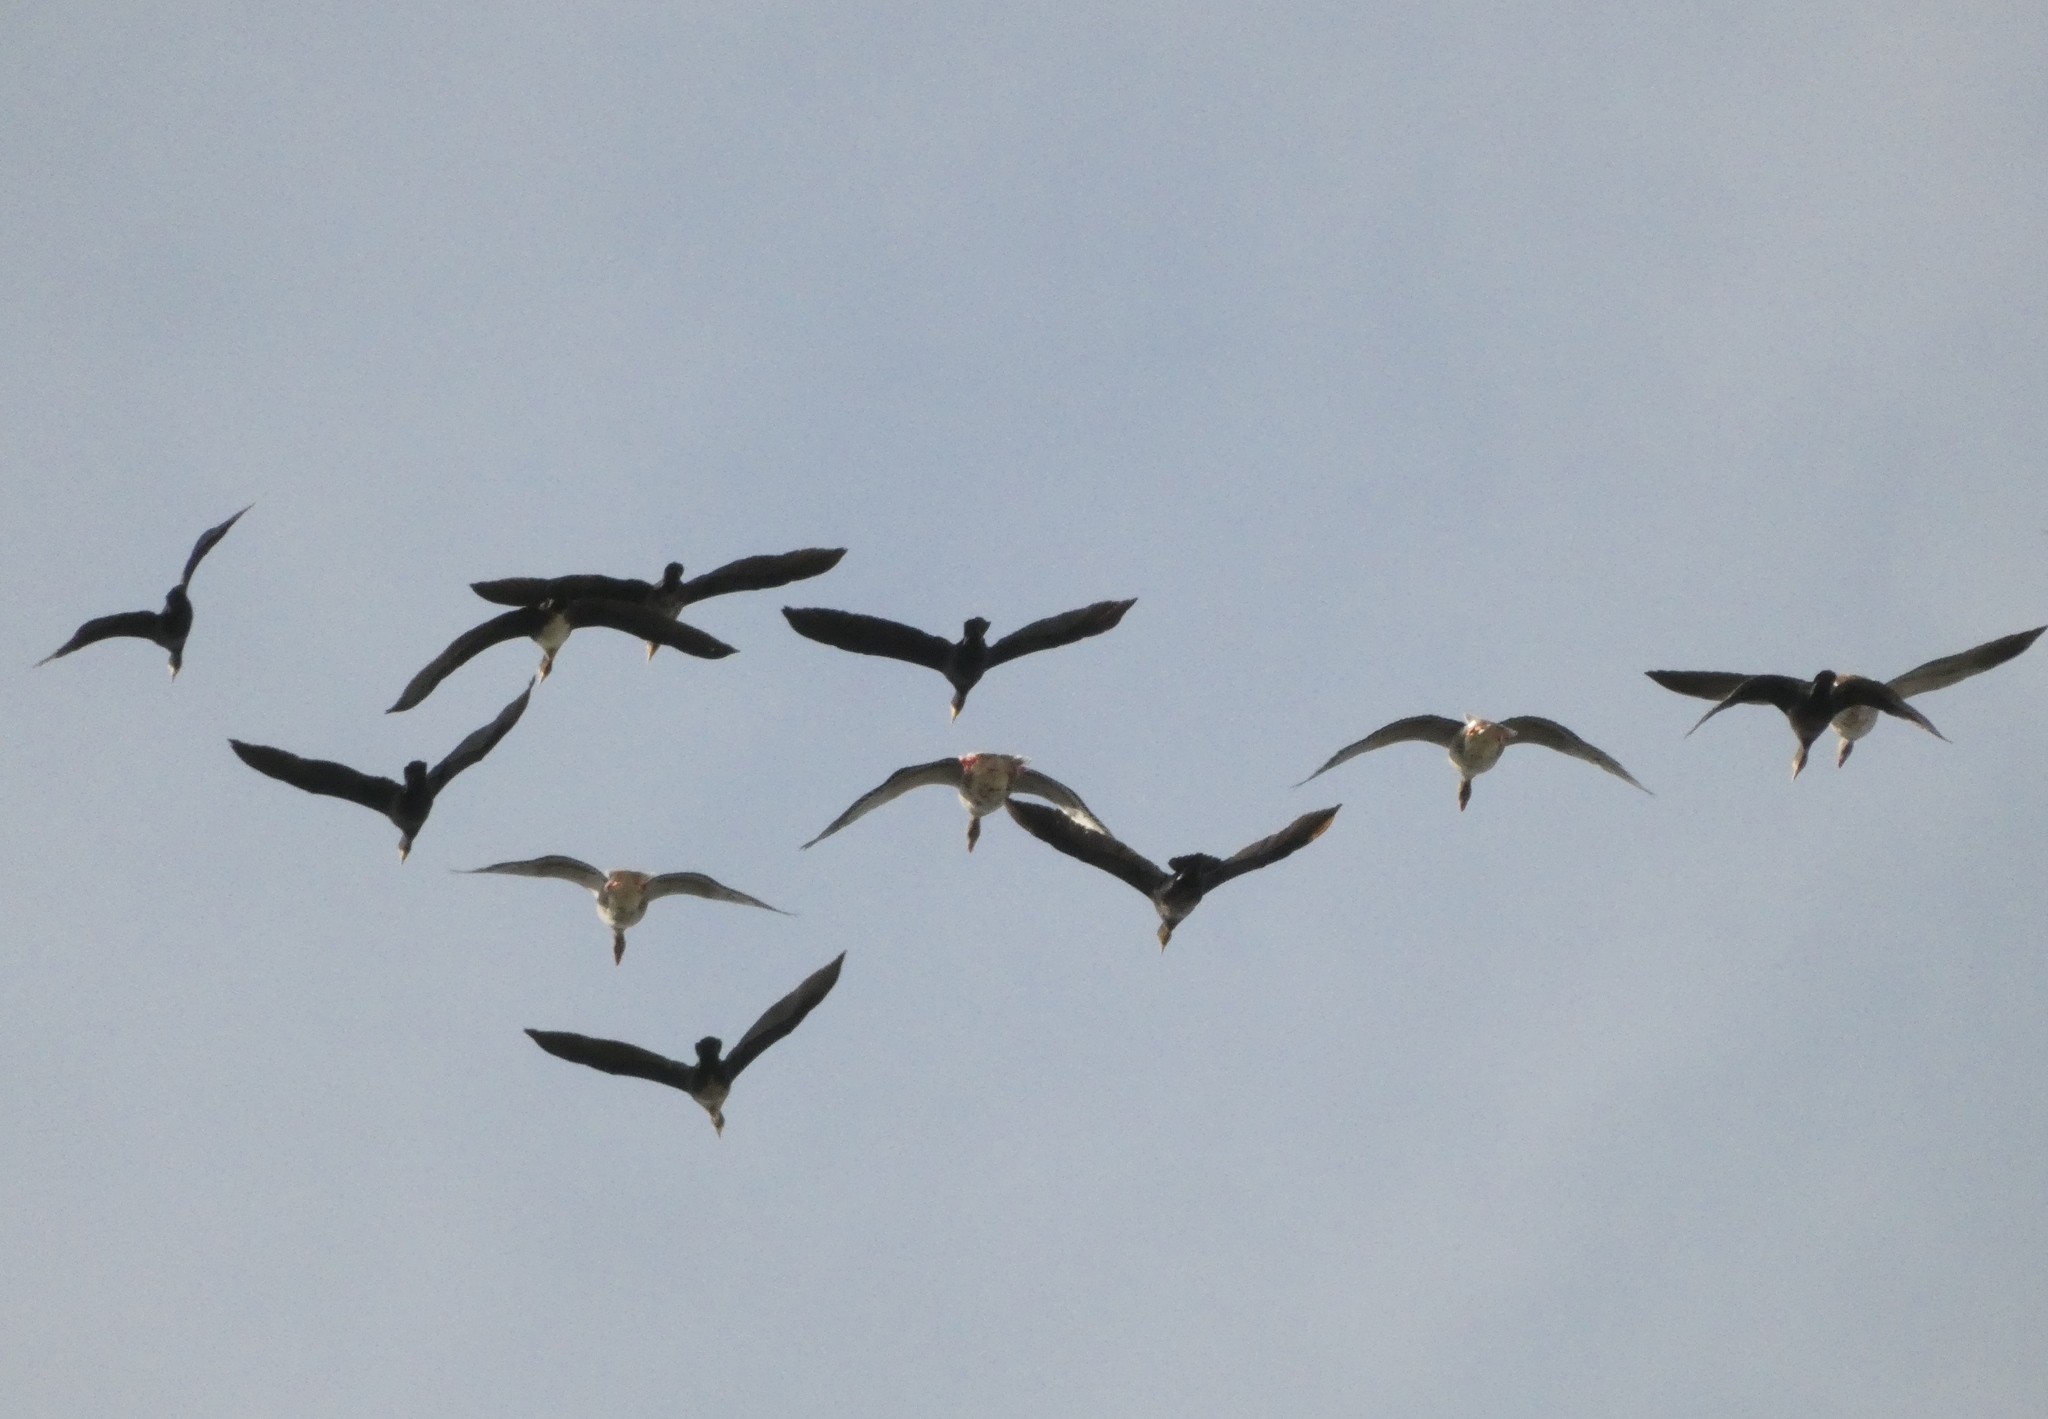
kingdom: Animalia
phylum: Chordata
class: Aves
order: Anseriformes
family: Anatidae
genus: Anser
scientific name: Anser anser
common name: Greylag goose
